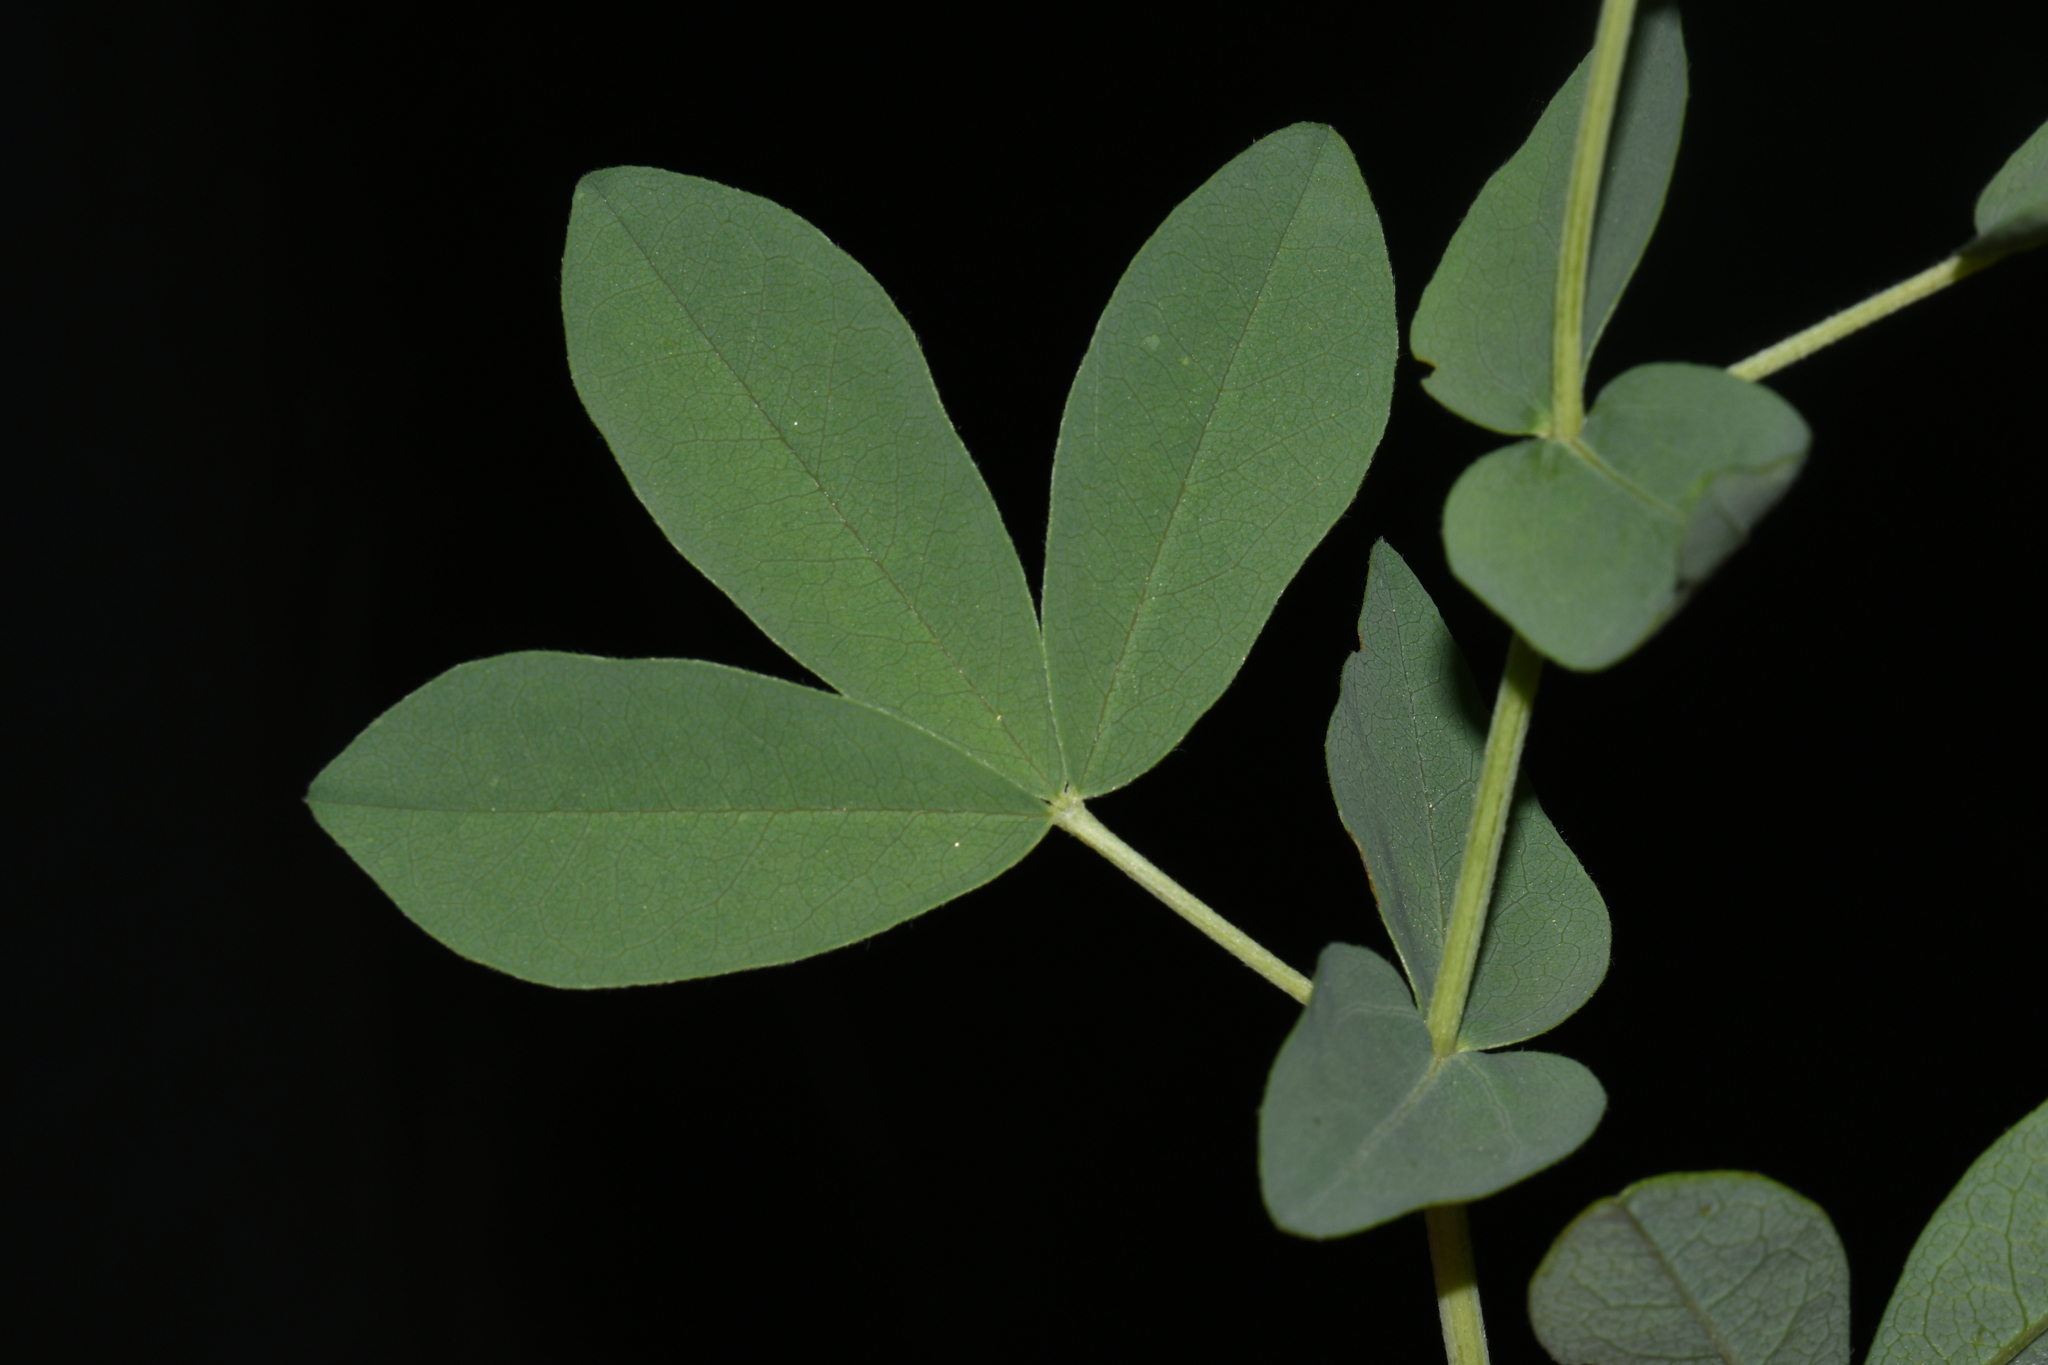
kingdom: Plantae
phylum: Tracheophyta
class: Magnoliopsida
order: Fabales
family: Fabaceae
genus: Thermopsis
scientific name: Thermopsis rhombifolia
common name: Circle-pod-pea
